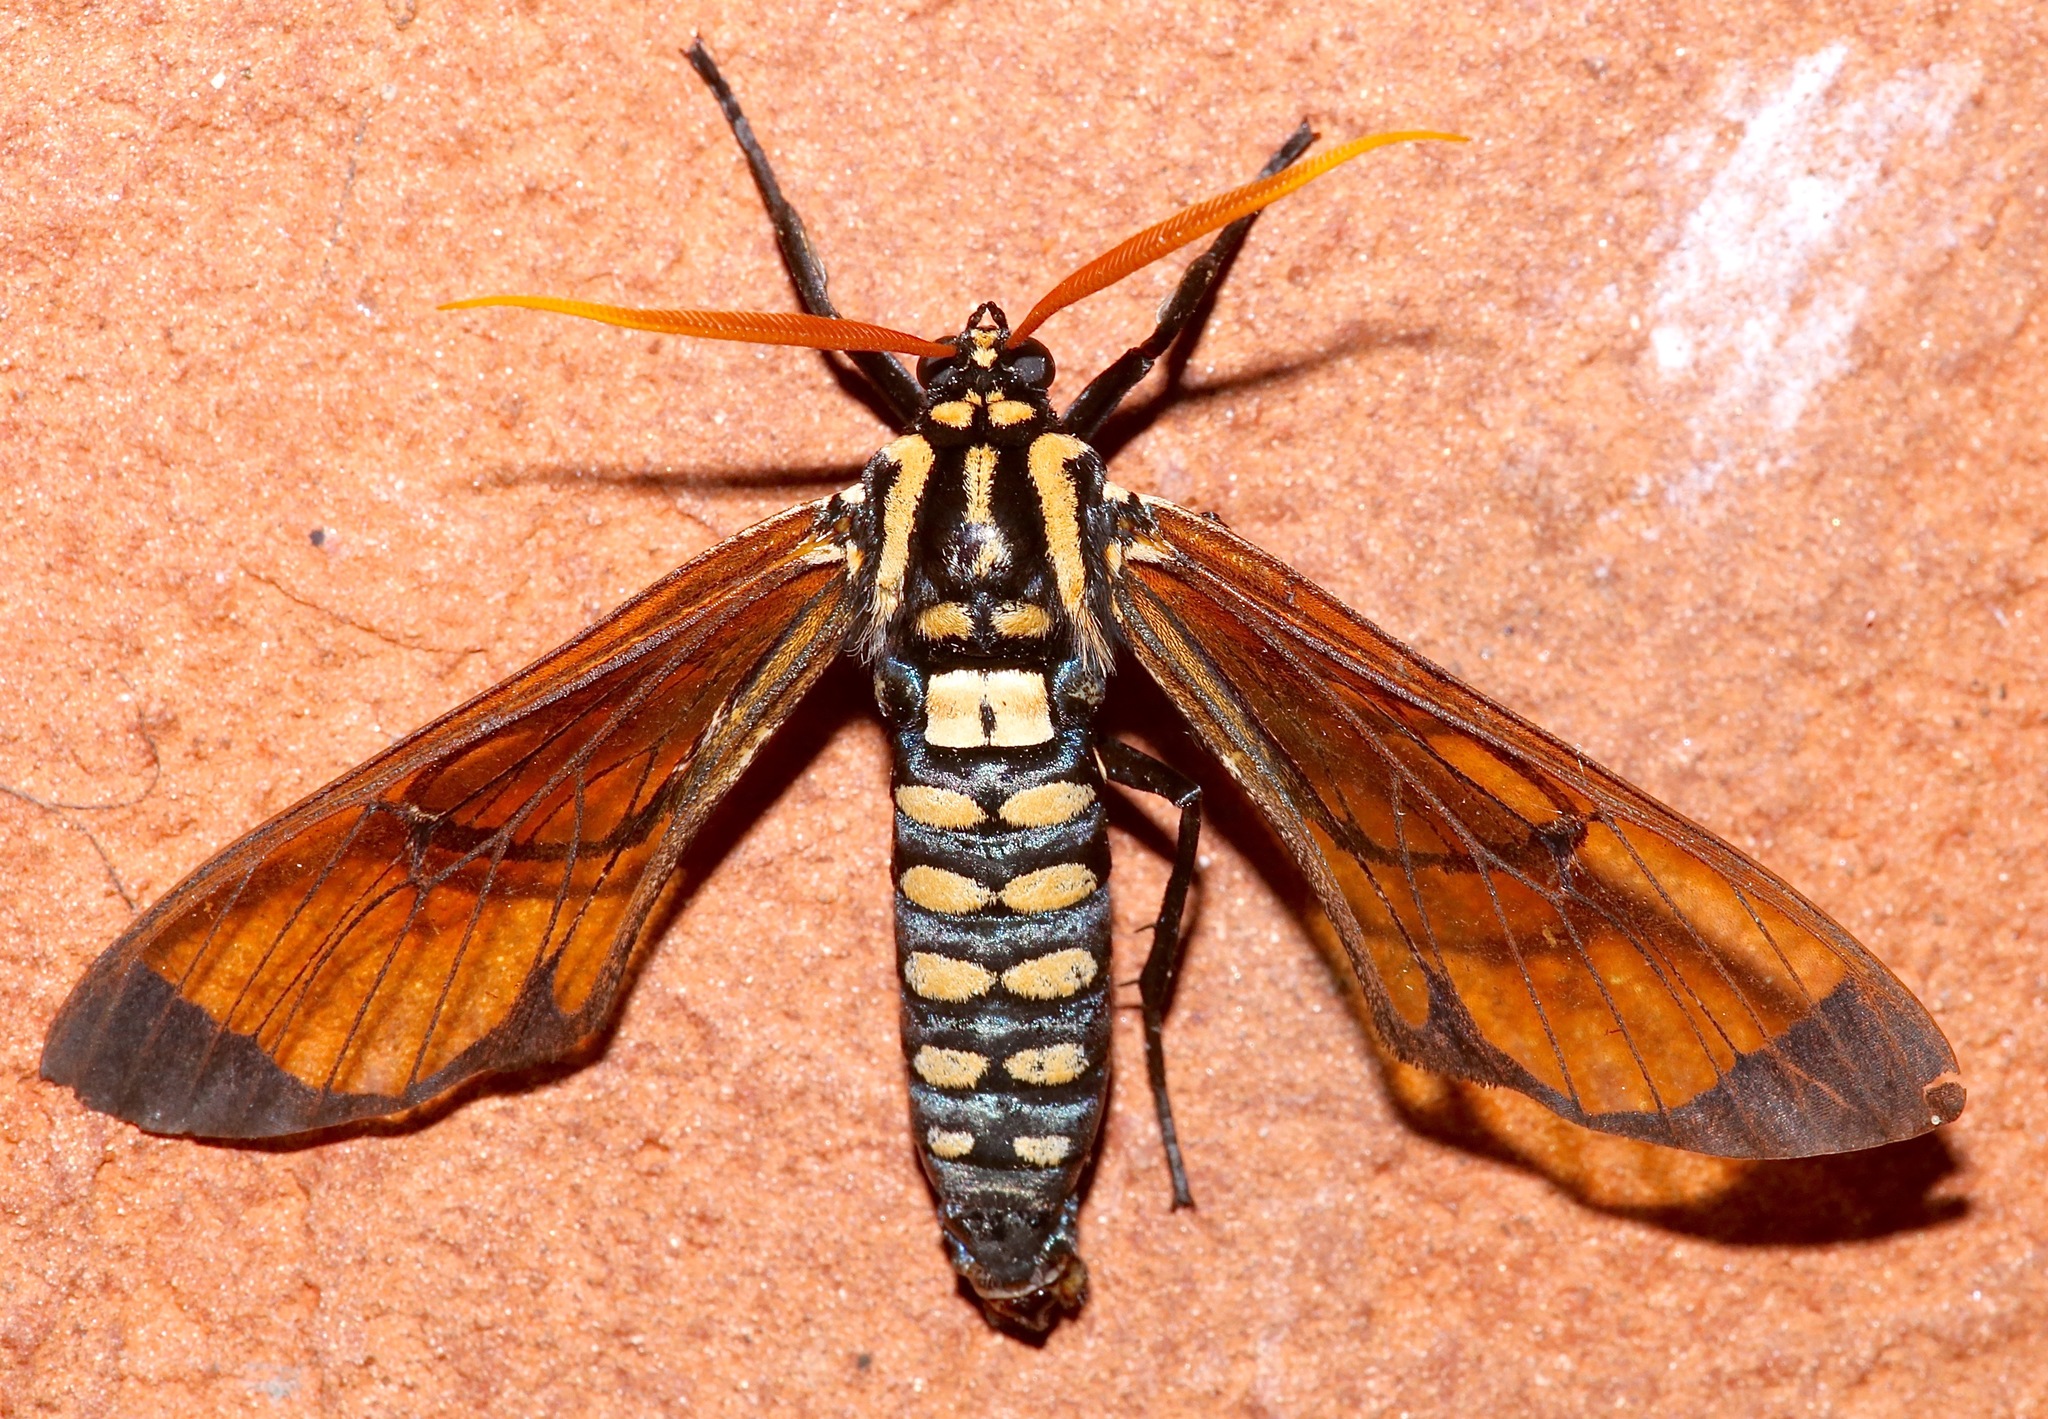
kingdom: Animalia
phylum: Arthropoda
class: Insecta
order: Lepidoptera
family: Erebidae
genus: Isanthrene
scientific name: Isanthrene perboscii
